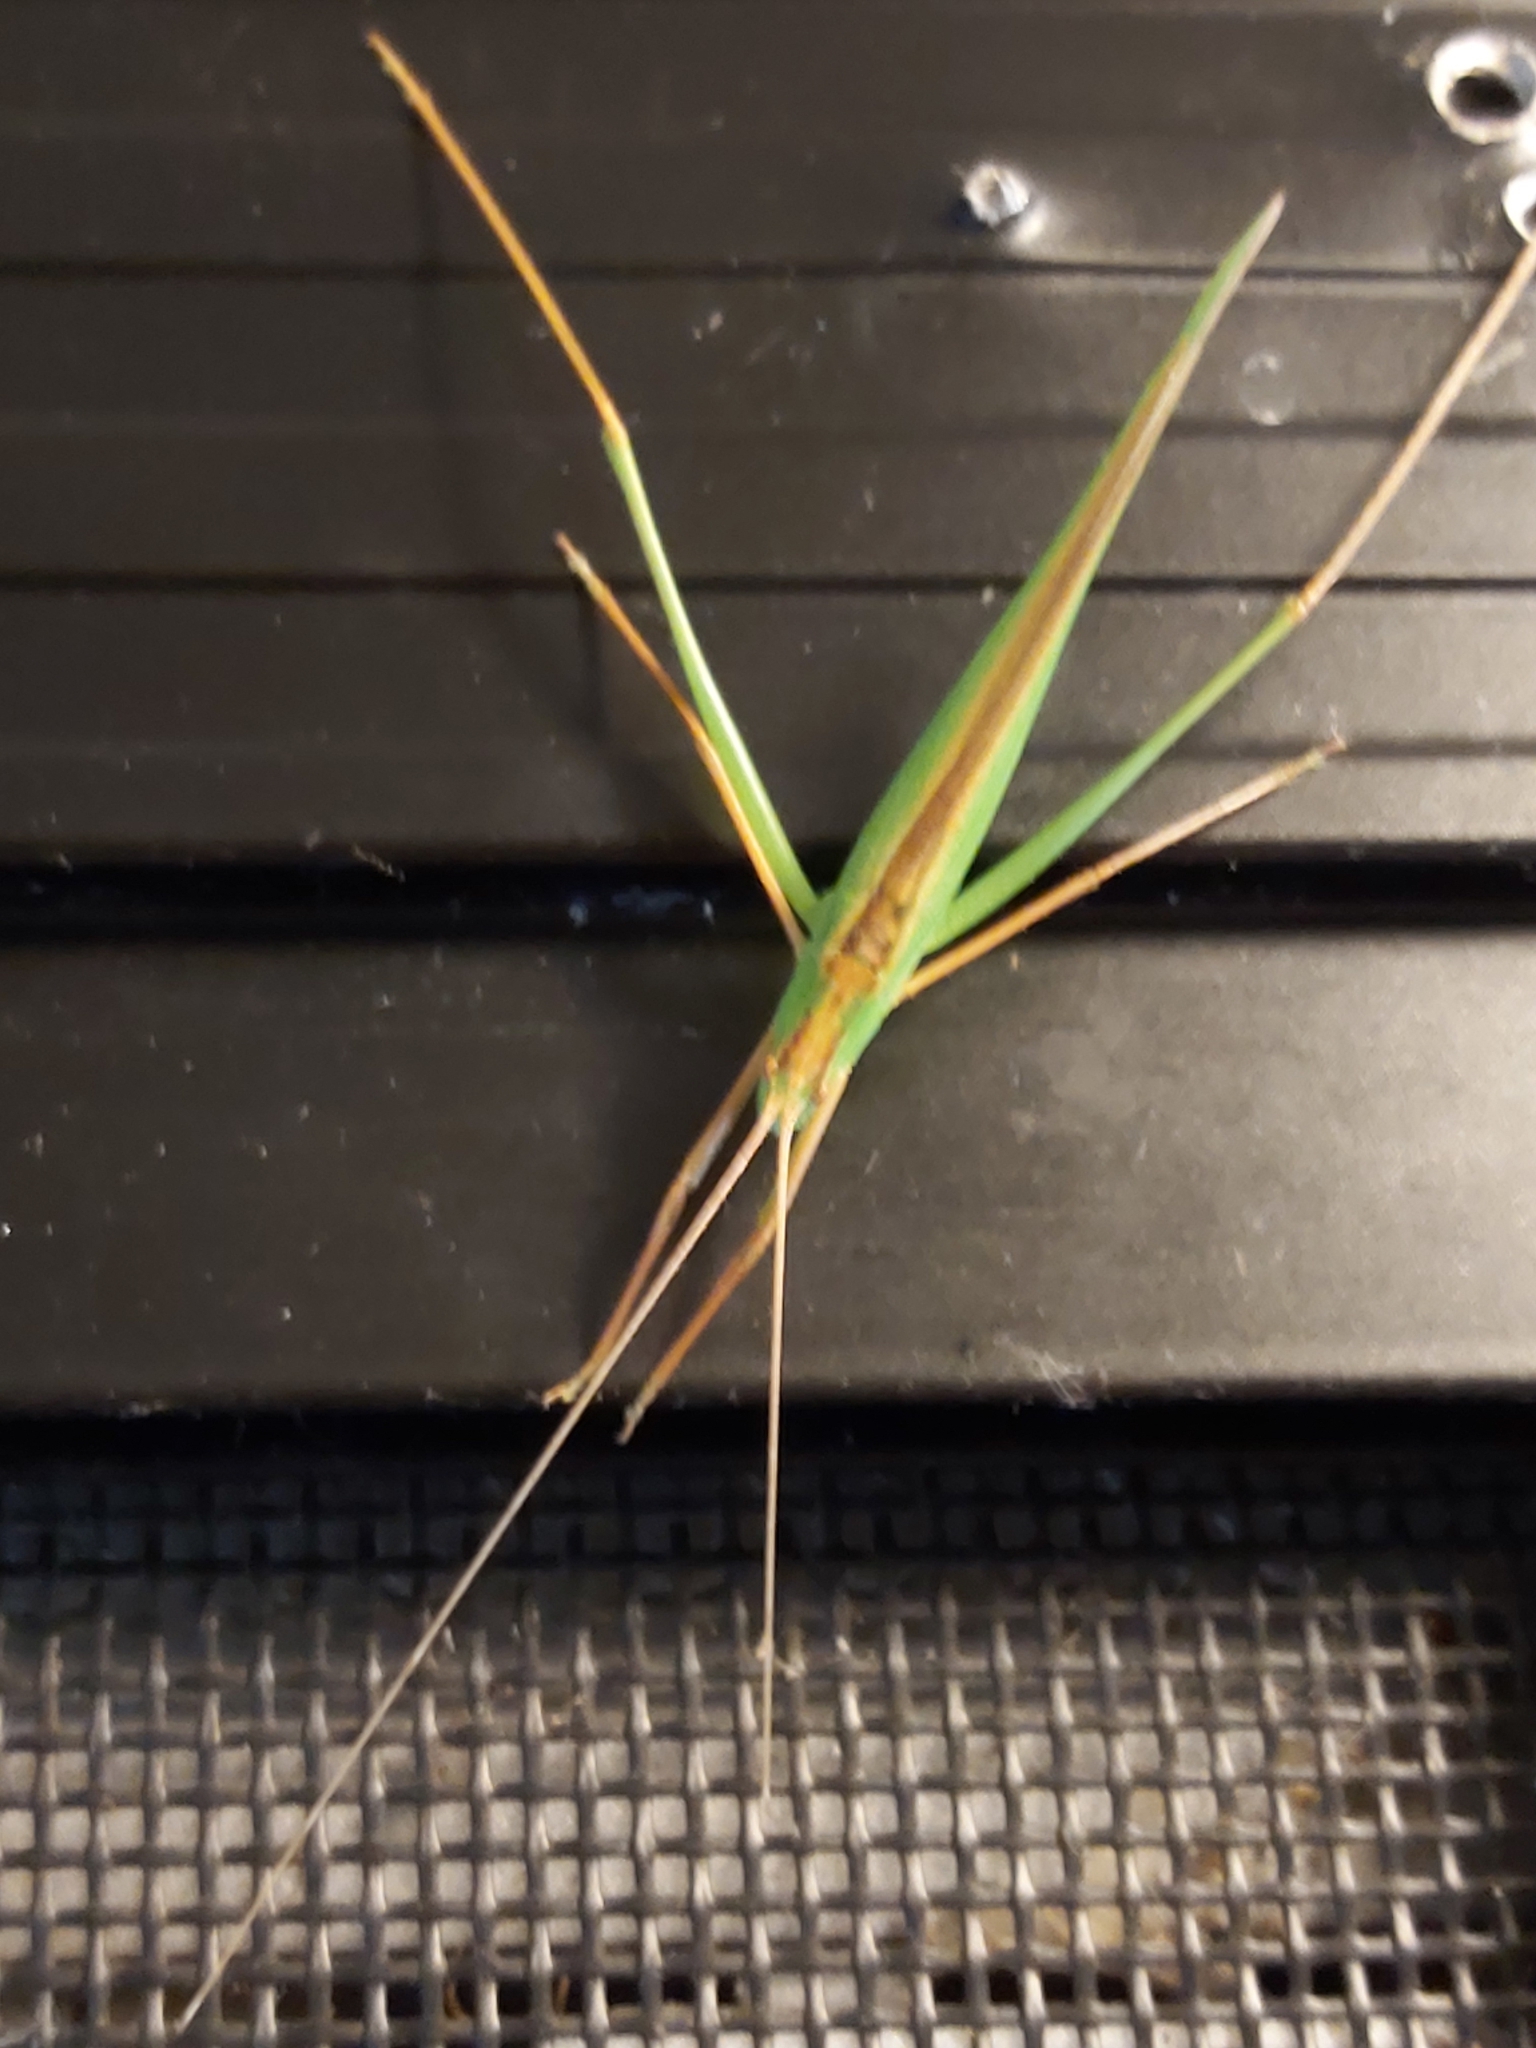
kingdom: Animalia
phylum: Arthropoda
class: Insecta
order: Orthoptera
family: Tettigoniidae
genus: Ducetia
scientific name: Ducetia antipoda
